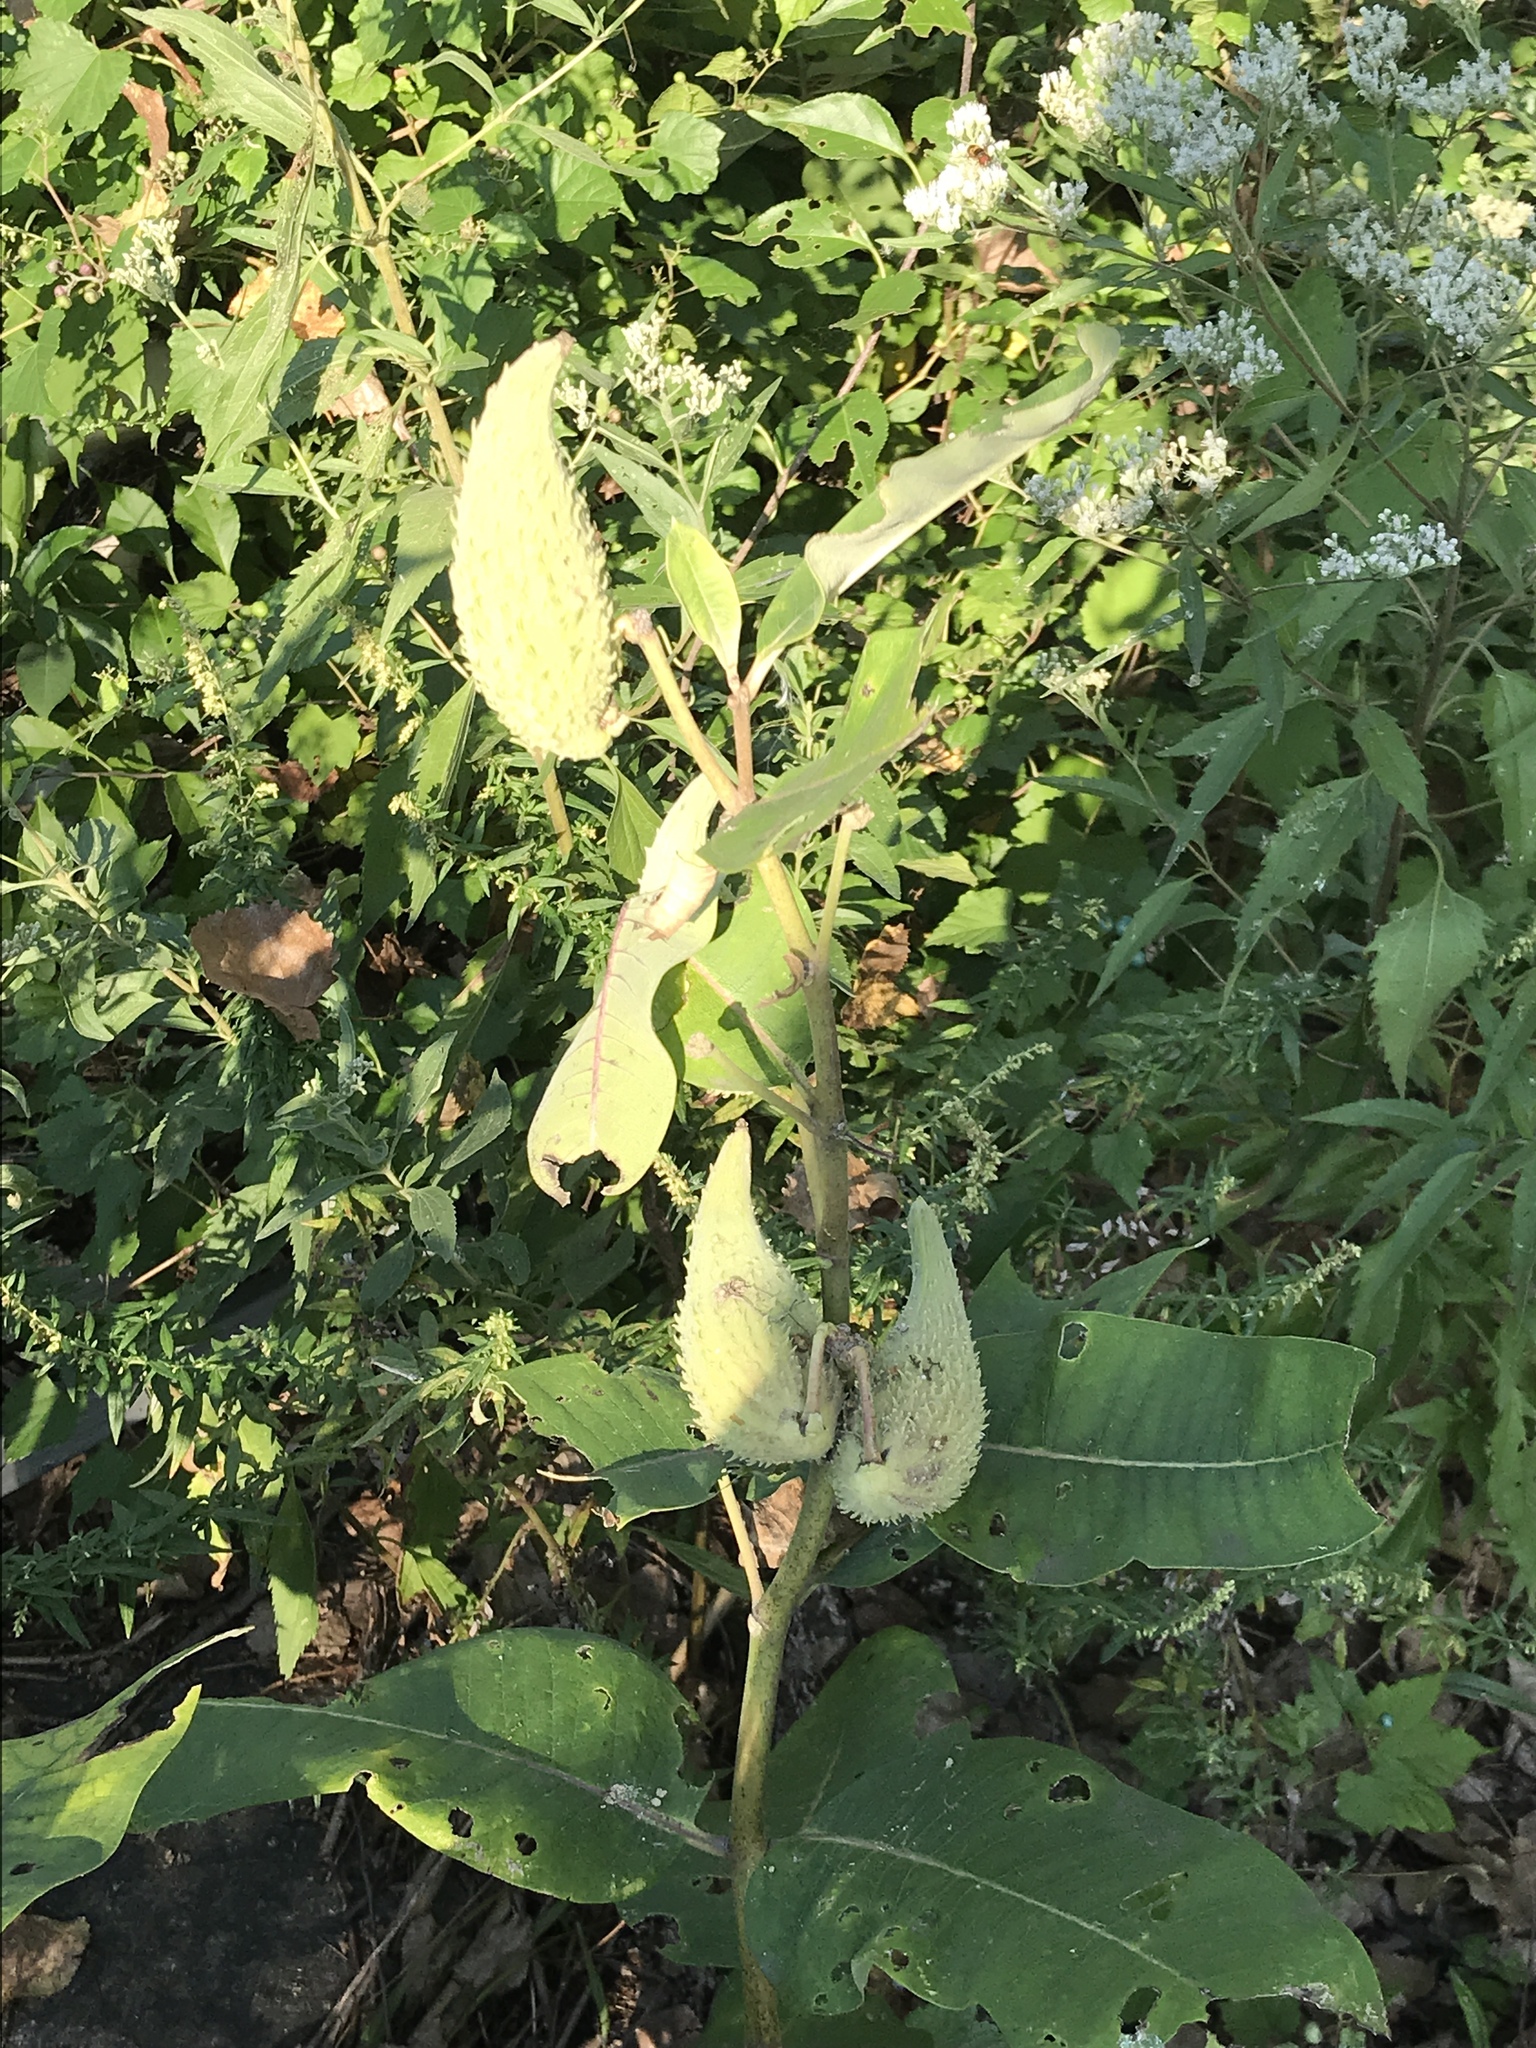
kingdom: Plantae
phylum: Tracheophyta
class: Magnoliopsida
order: Gentianales
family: Apocynaceae
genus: Asclepias
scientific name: Asclepias syriaca
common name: Common milkweed
